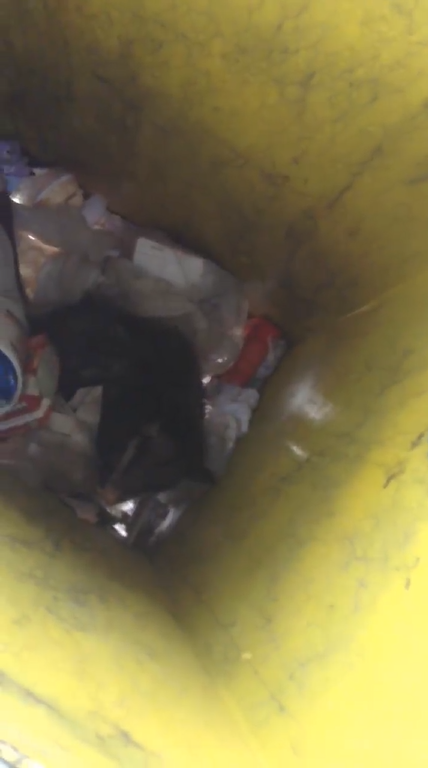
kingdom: Animalia
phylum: Chordata
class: Mammalia
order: Didelphimorphia
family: Didelphidae
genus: Didelphis
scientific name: Didelphis virginiana
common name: Virginia opossum
